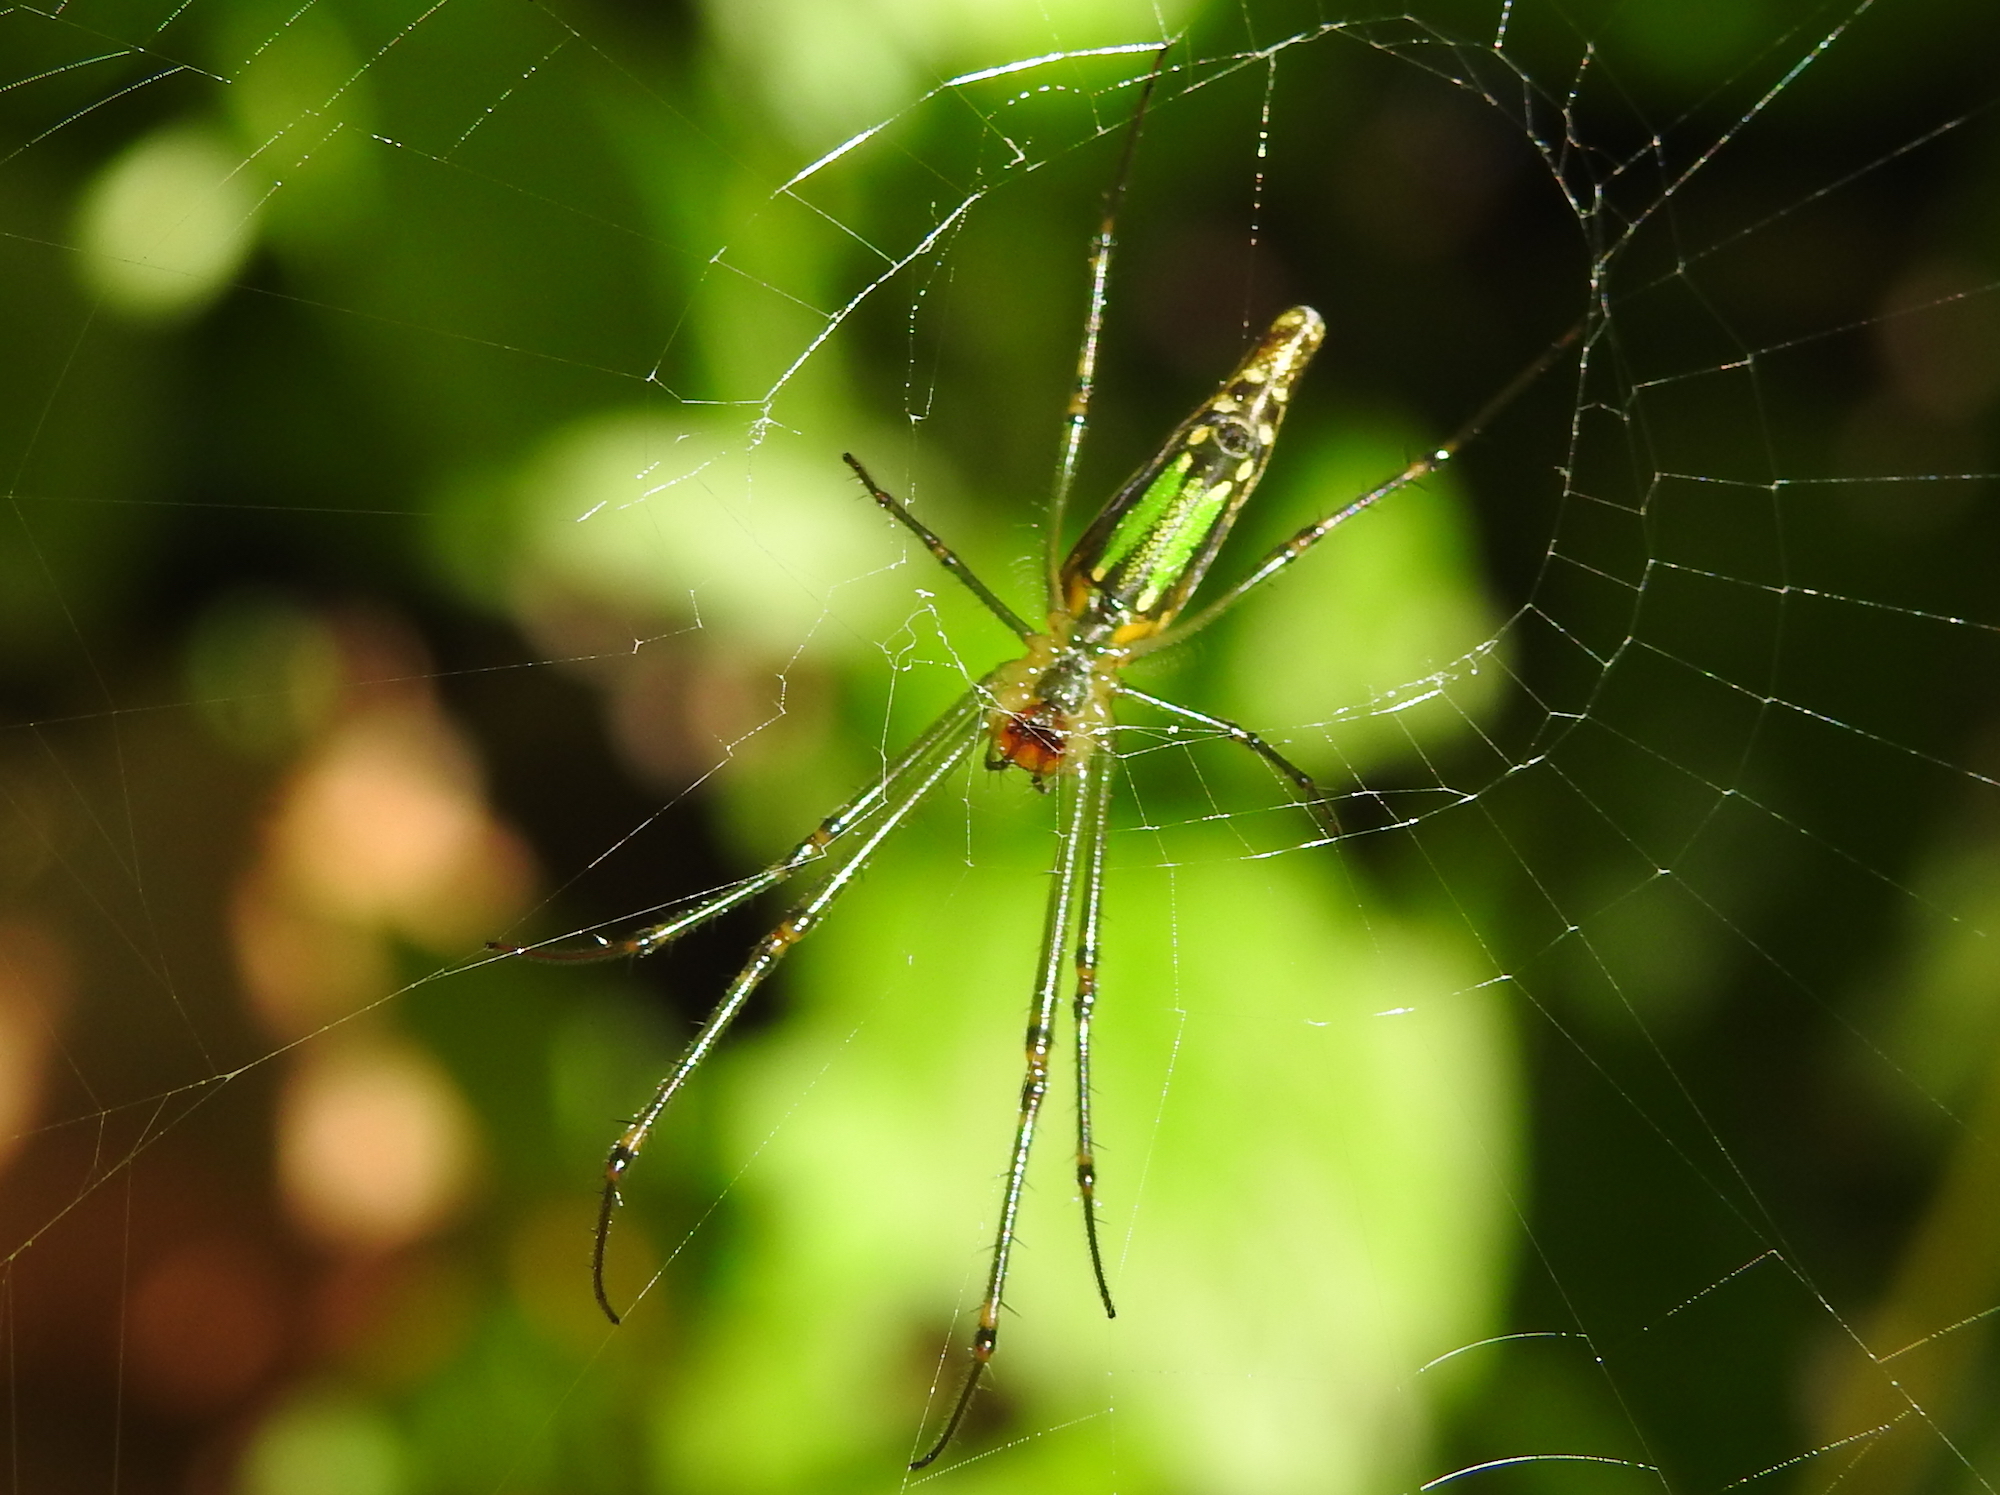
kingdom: Animalia
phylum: Arthropoda
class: Arachnida
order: Araneae
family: Tetragnathidae
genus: Leucauge
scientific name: Leucauge decorata
